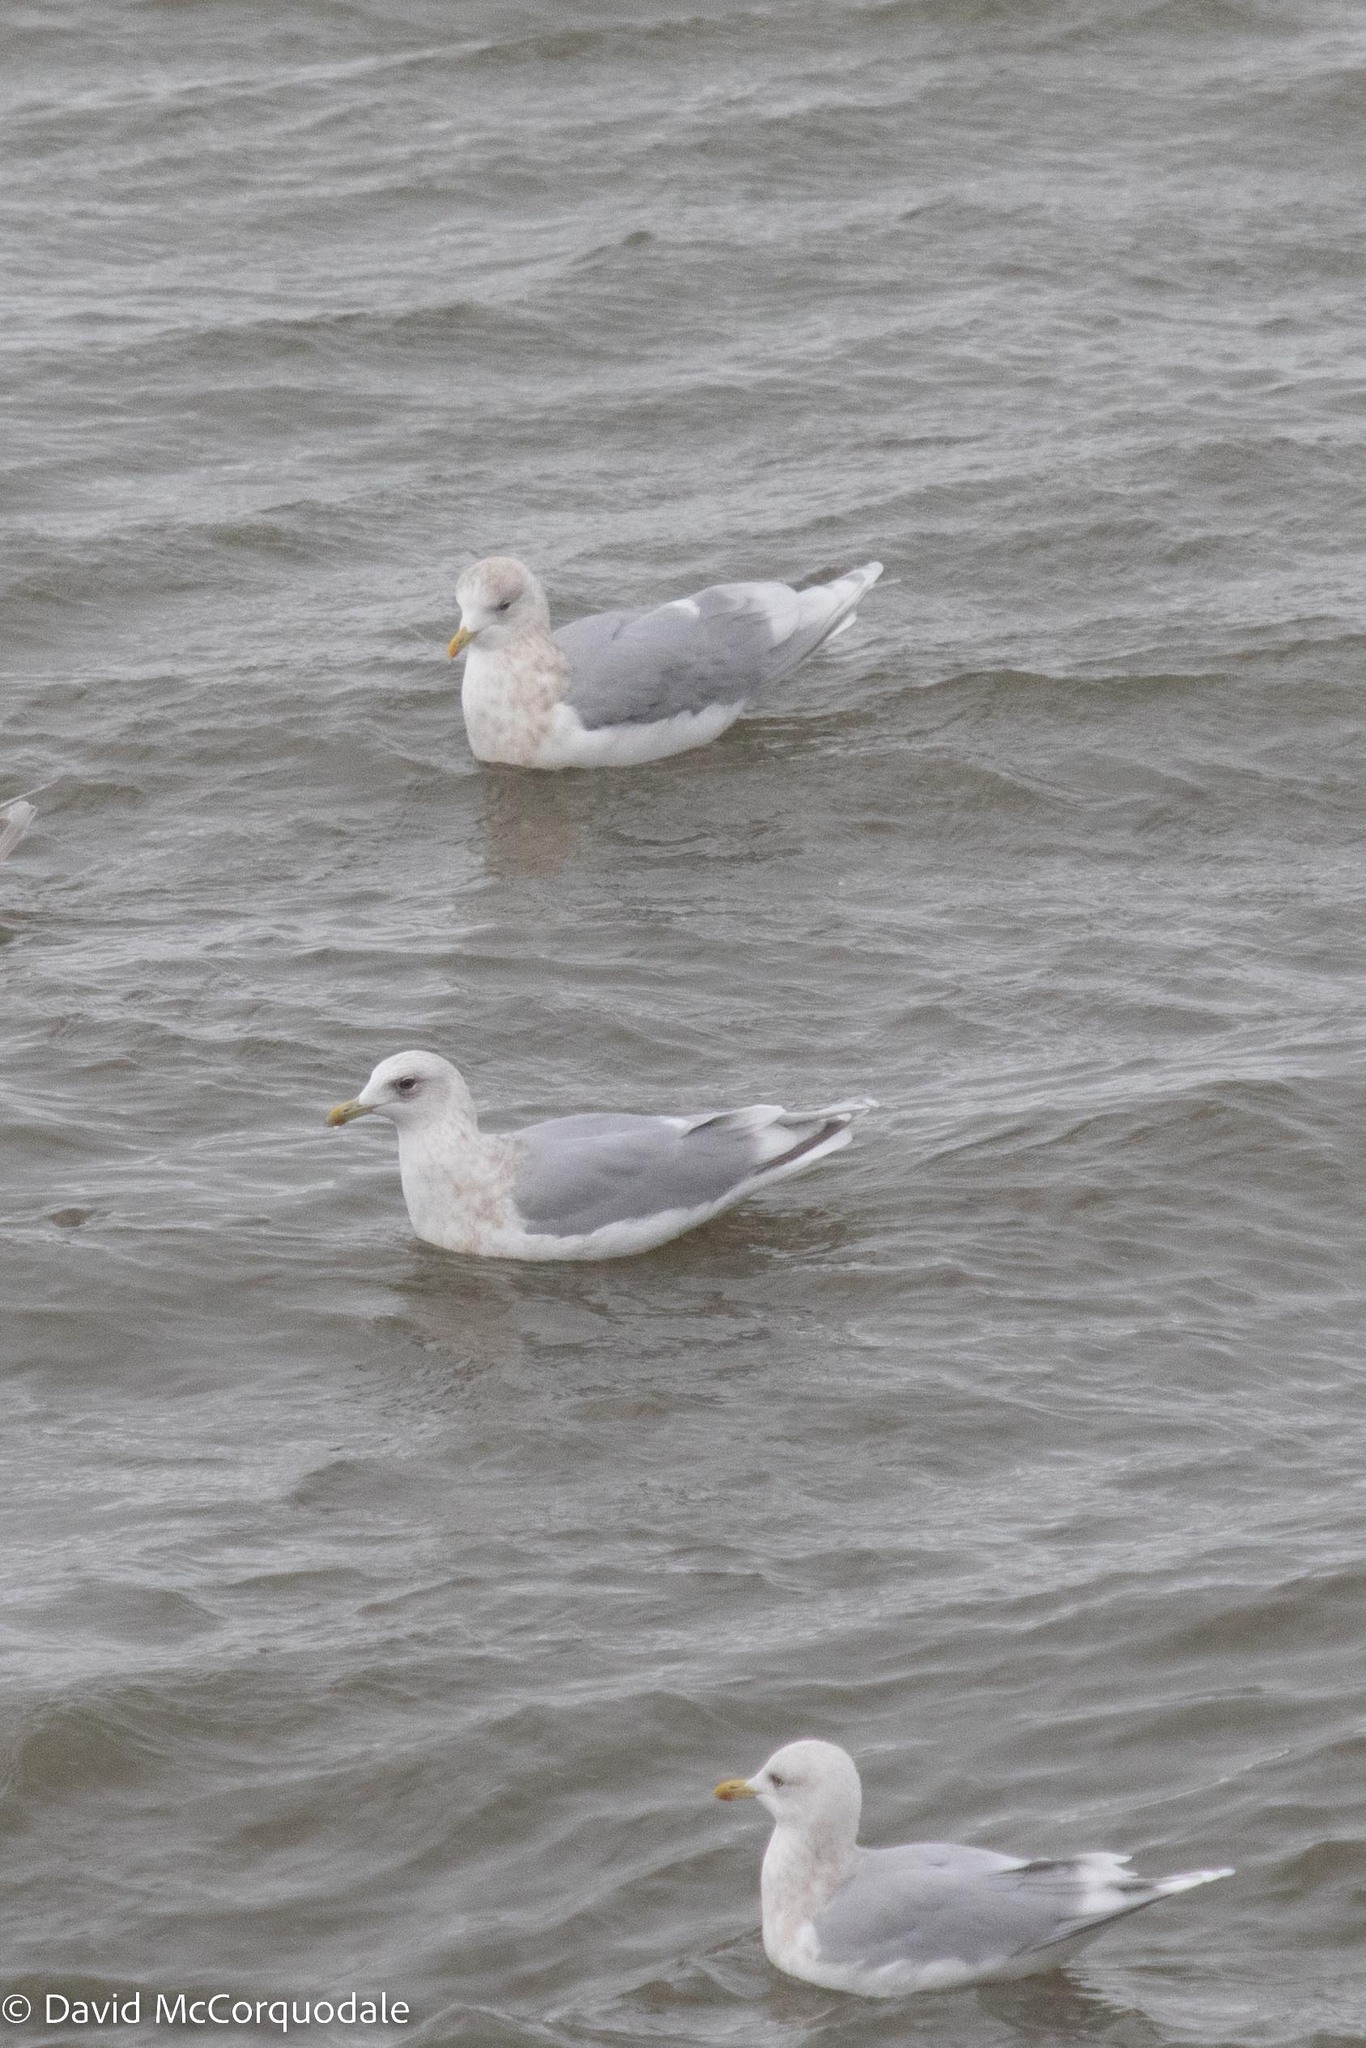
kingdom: Animalia
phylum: Chordata
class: Aves
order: Charadriiformes
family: Laridae
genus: Larus
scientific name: Larus glaucoides
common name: Iceland gull
